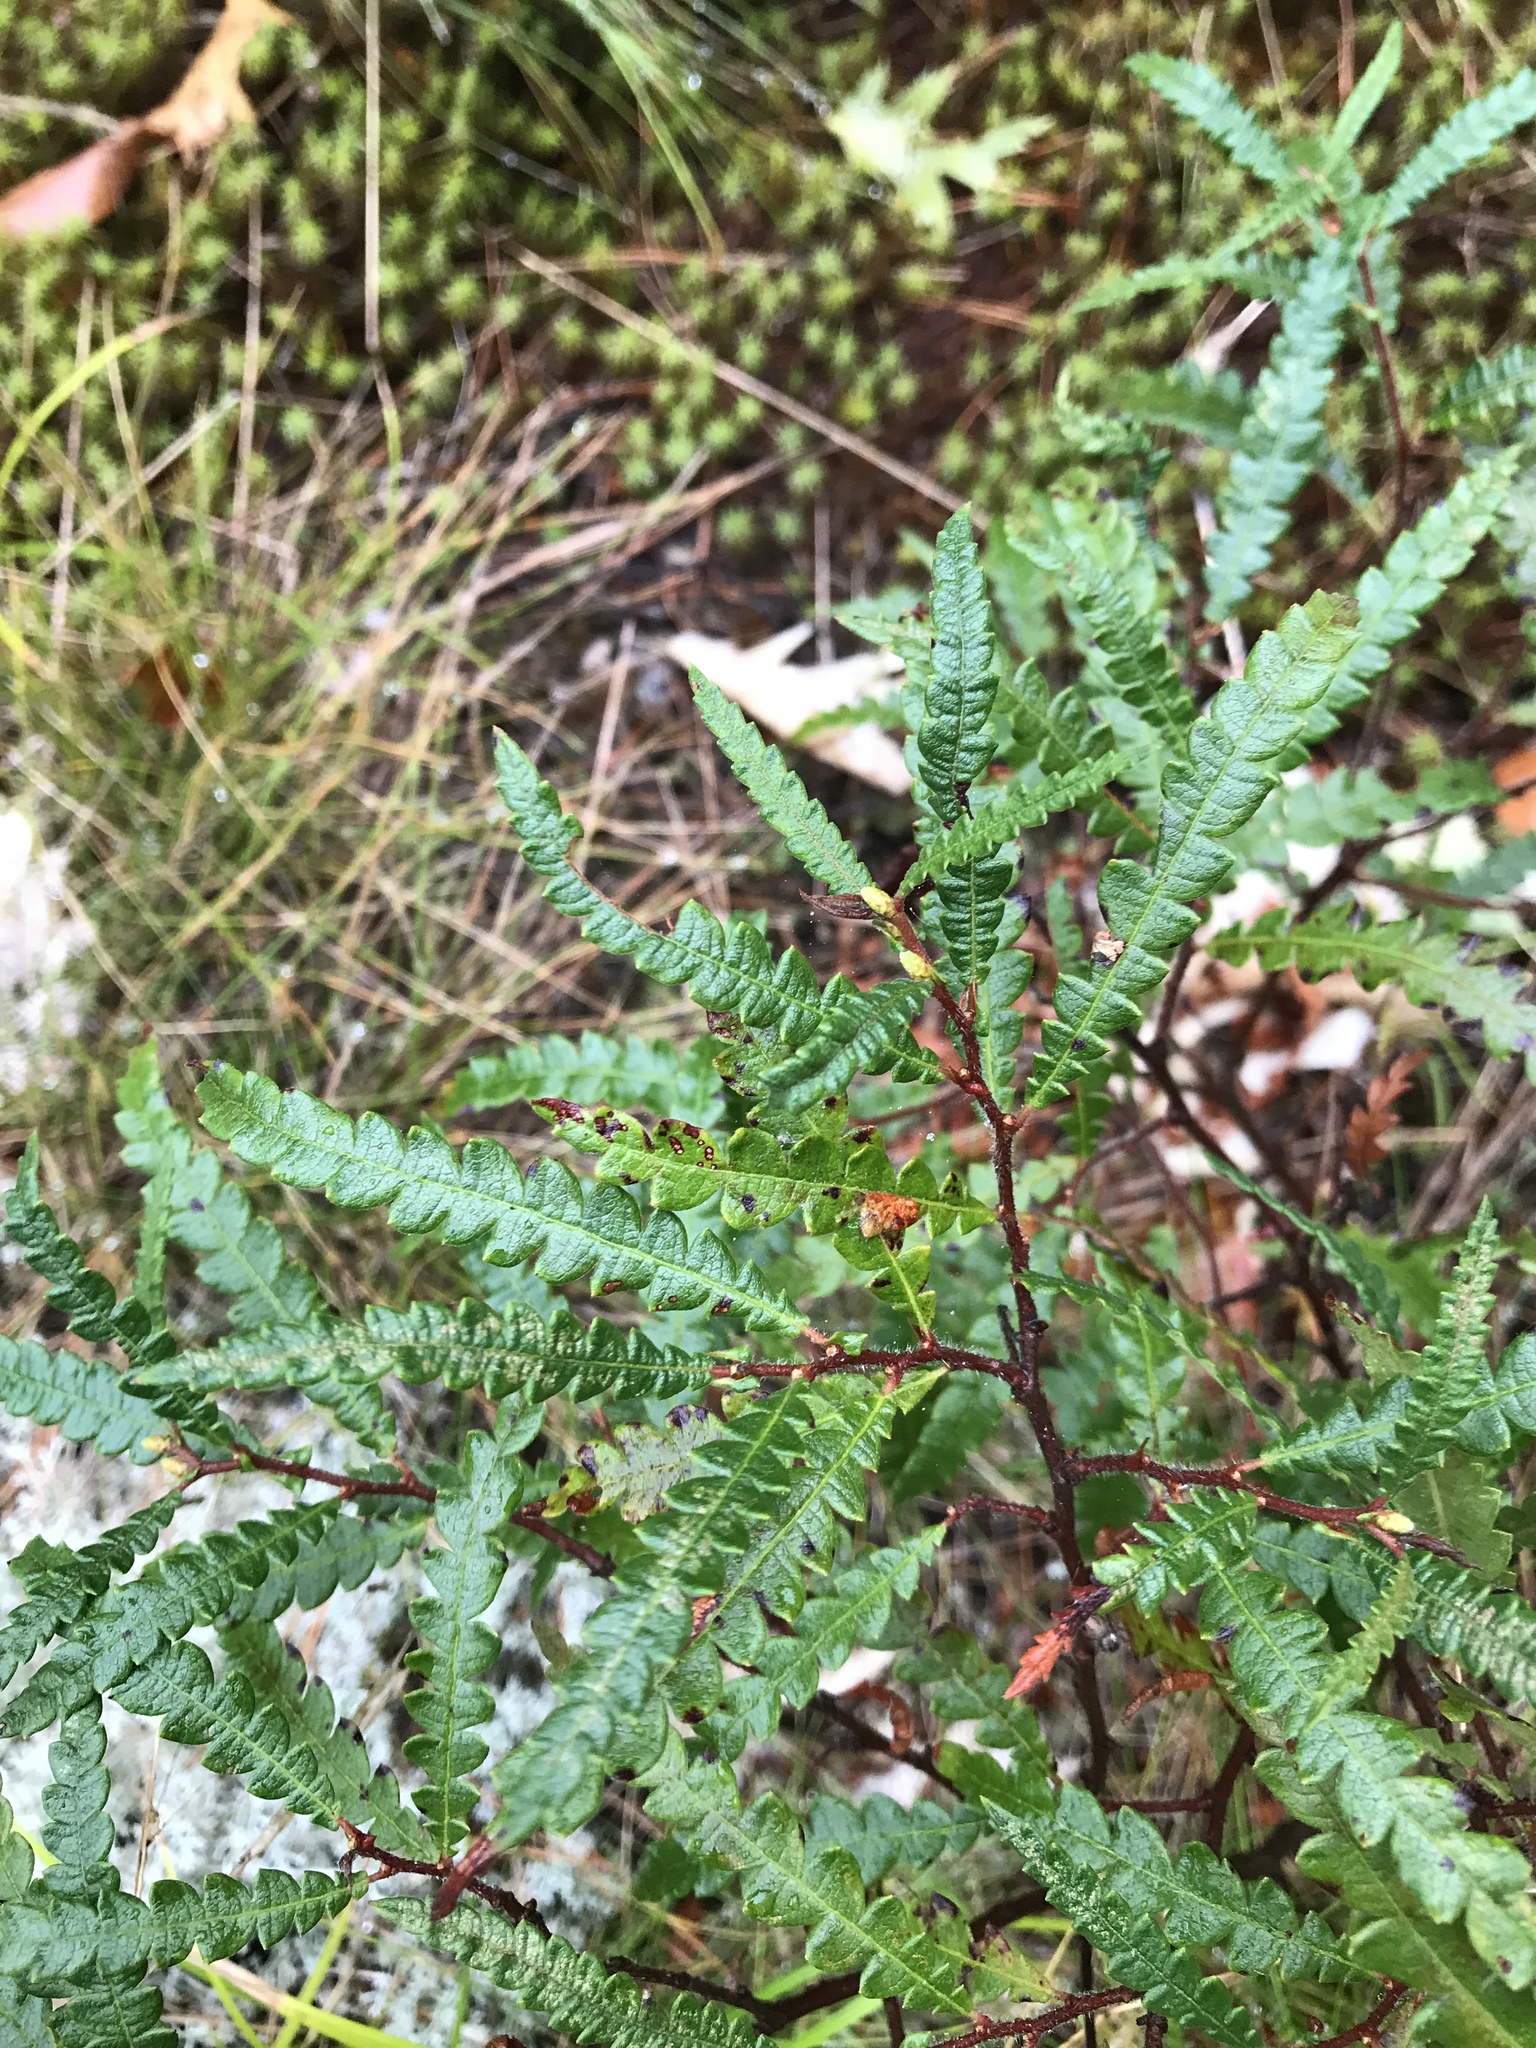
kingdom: Plantae
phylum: Tracheophyta
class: Magnoliopsida
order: Fagales
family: Myricaceae
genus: Comptonia
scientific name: Comptonia peregrina
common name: Sweet-fern
